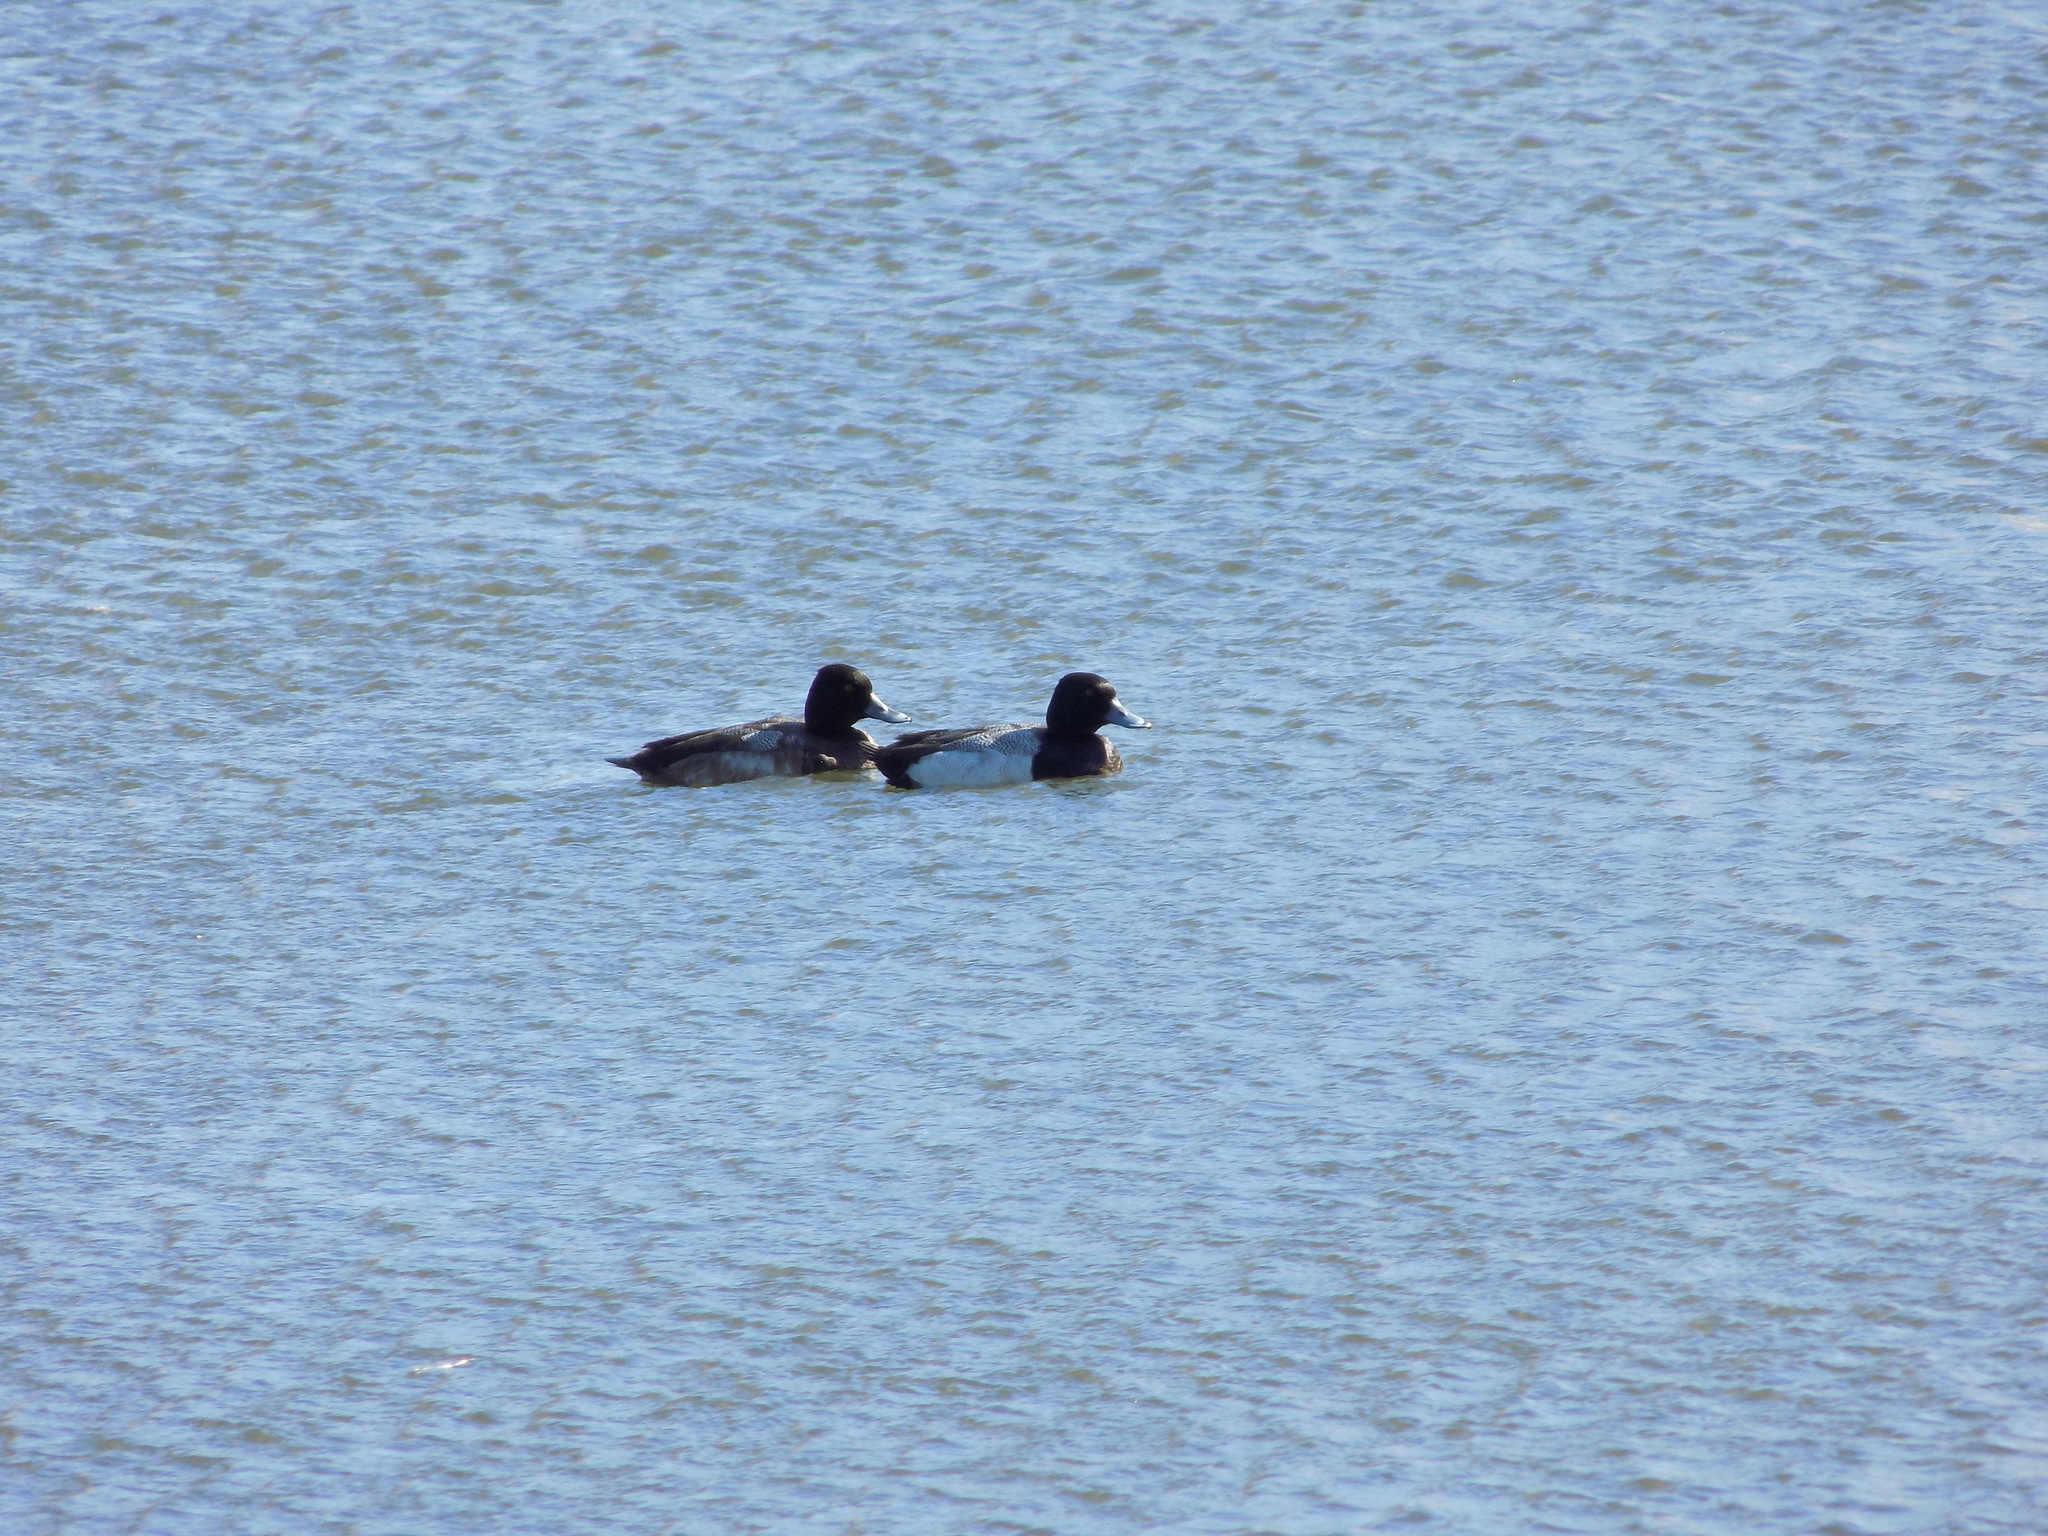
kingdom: Animalia
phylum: Chordata
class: Aves
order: Anseriformes
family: Anatidae
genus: Aythya
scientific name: Aythya affinis
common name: Lesser scaup
